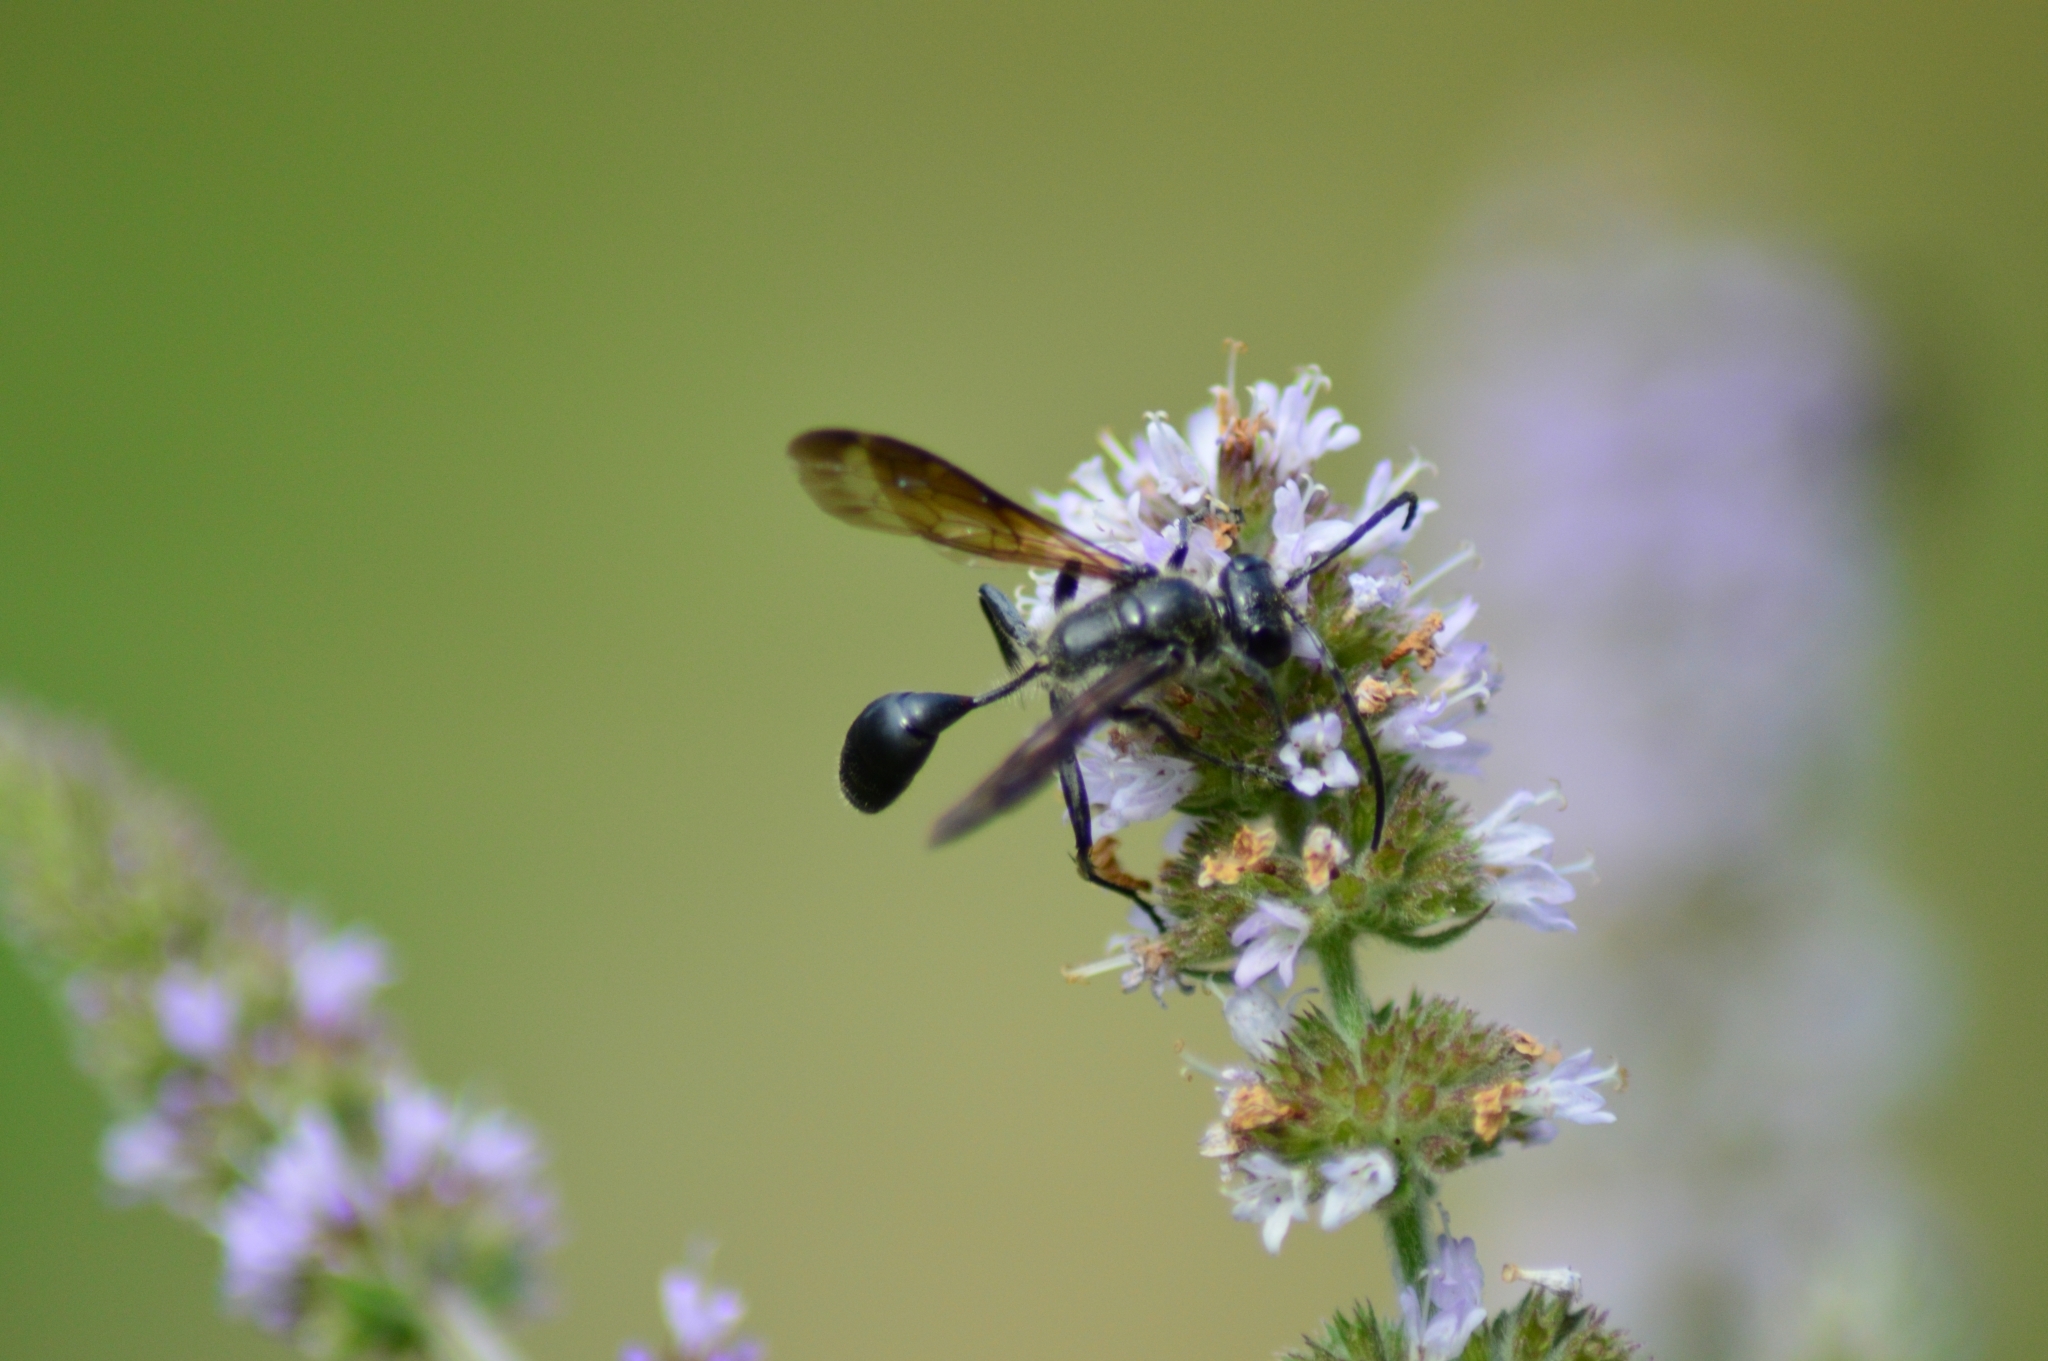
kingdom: Animalia
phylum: Arthropoda
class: Insecta
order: Hymenoptera
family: Sphecidae
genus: Isodontia
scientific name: Isodontia mexicana
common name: Mud dauber
